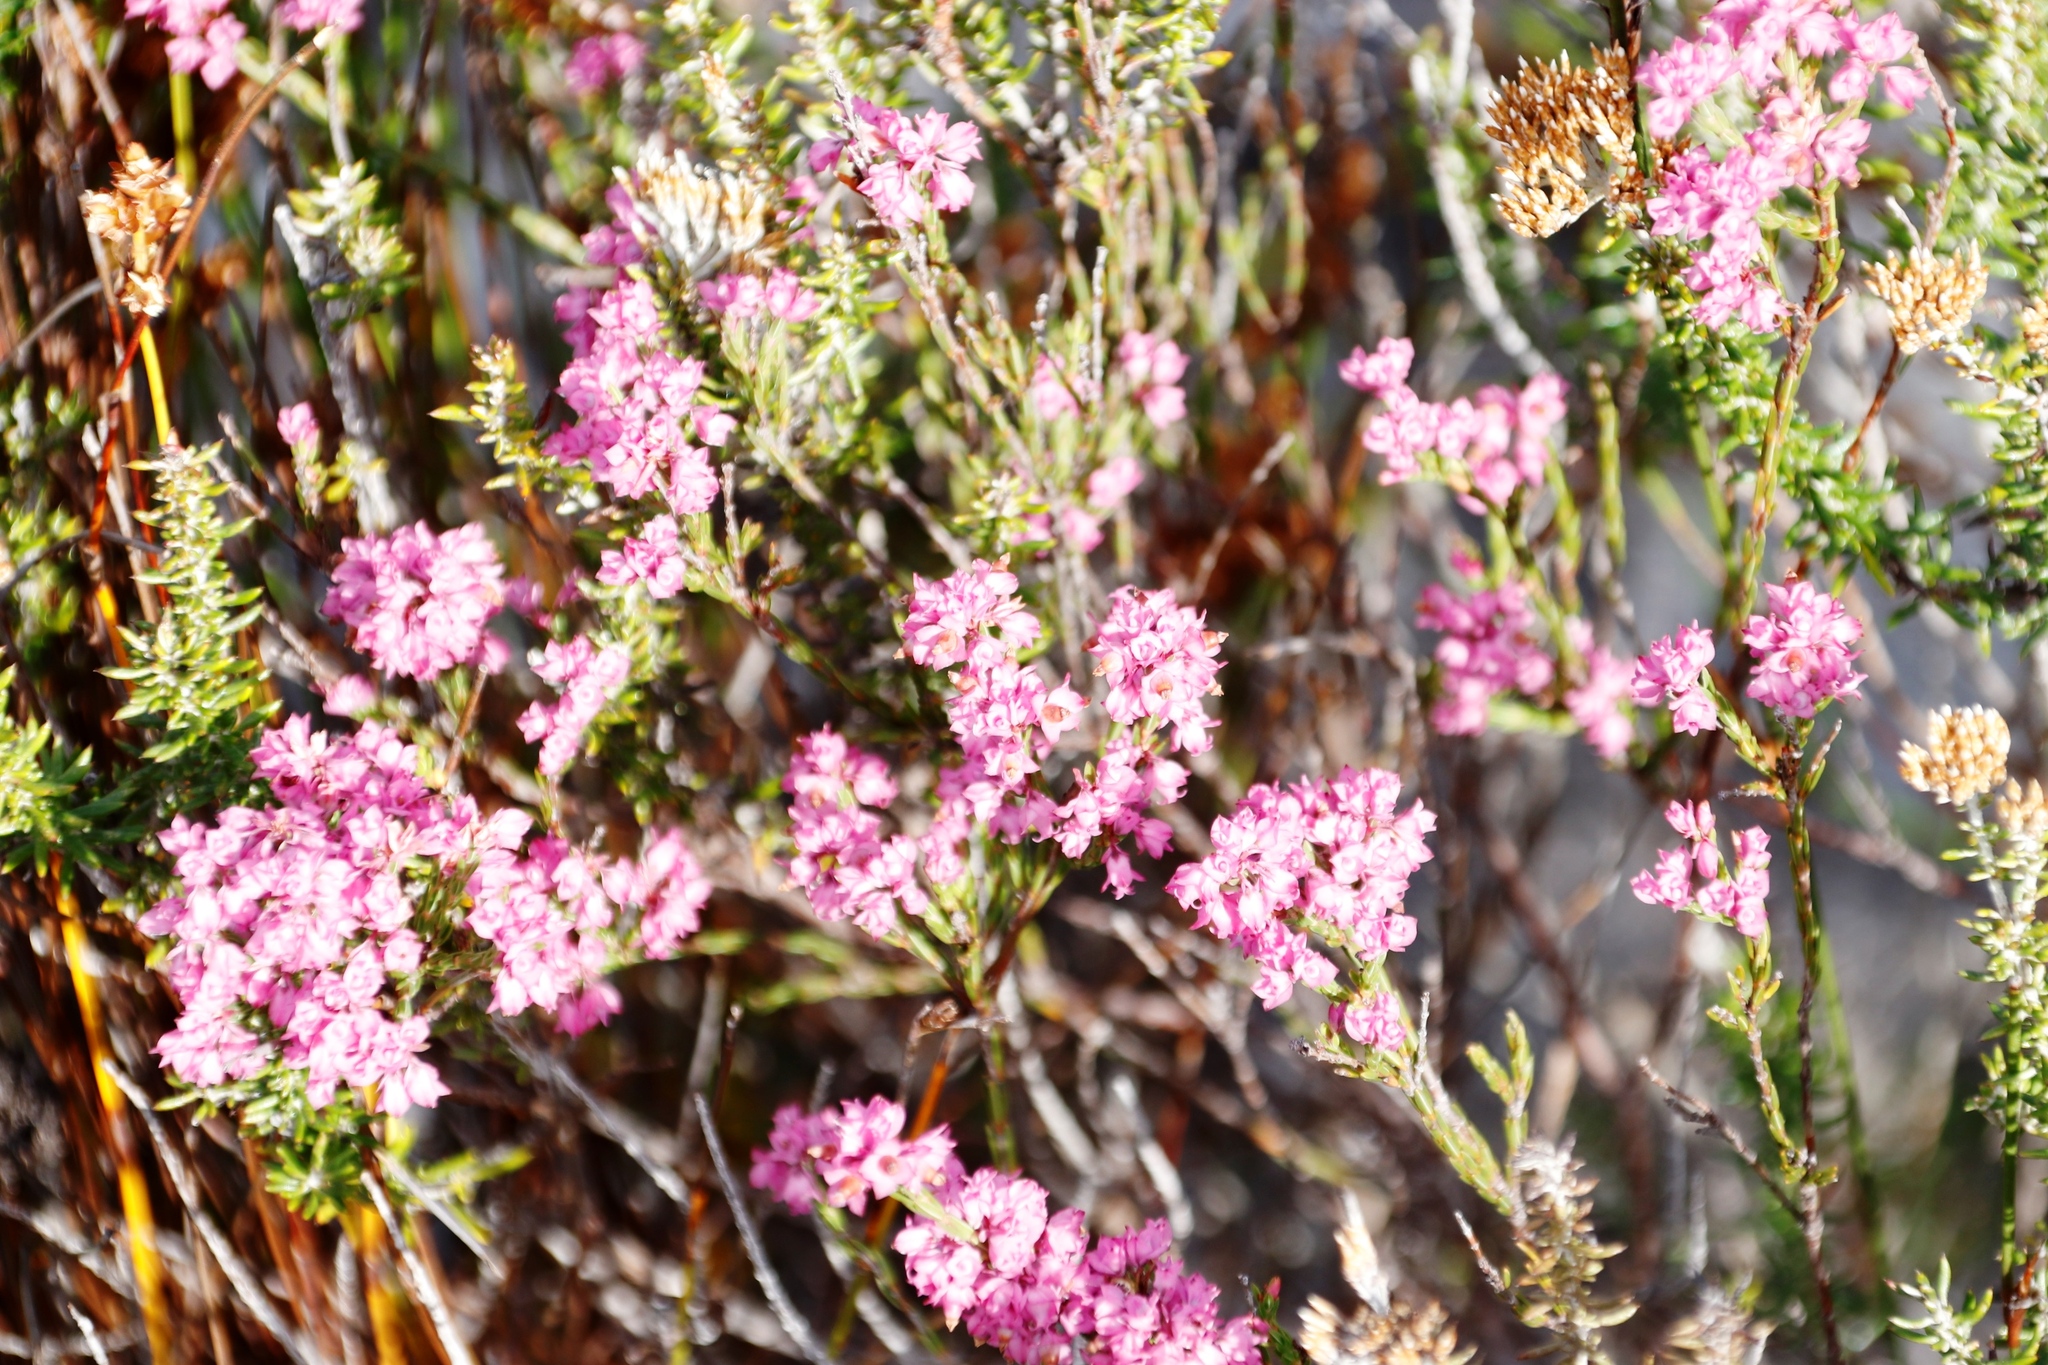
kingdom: Plantae
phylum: Tracheophyta
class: Magnoliopsida
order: Ericales
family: Ericaceae
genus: Erica
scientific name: Erica corifolia
